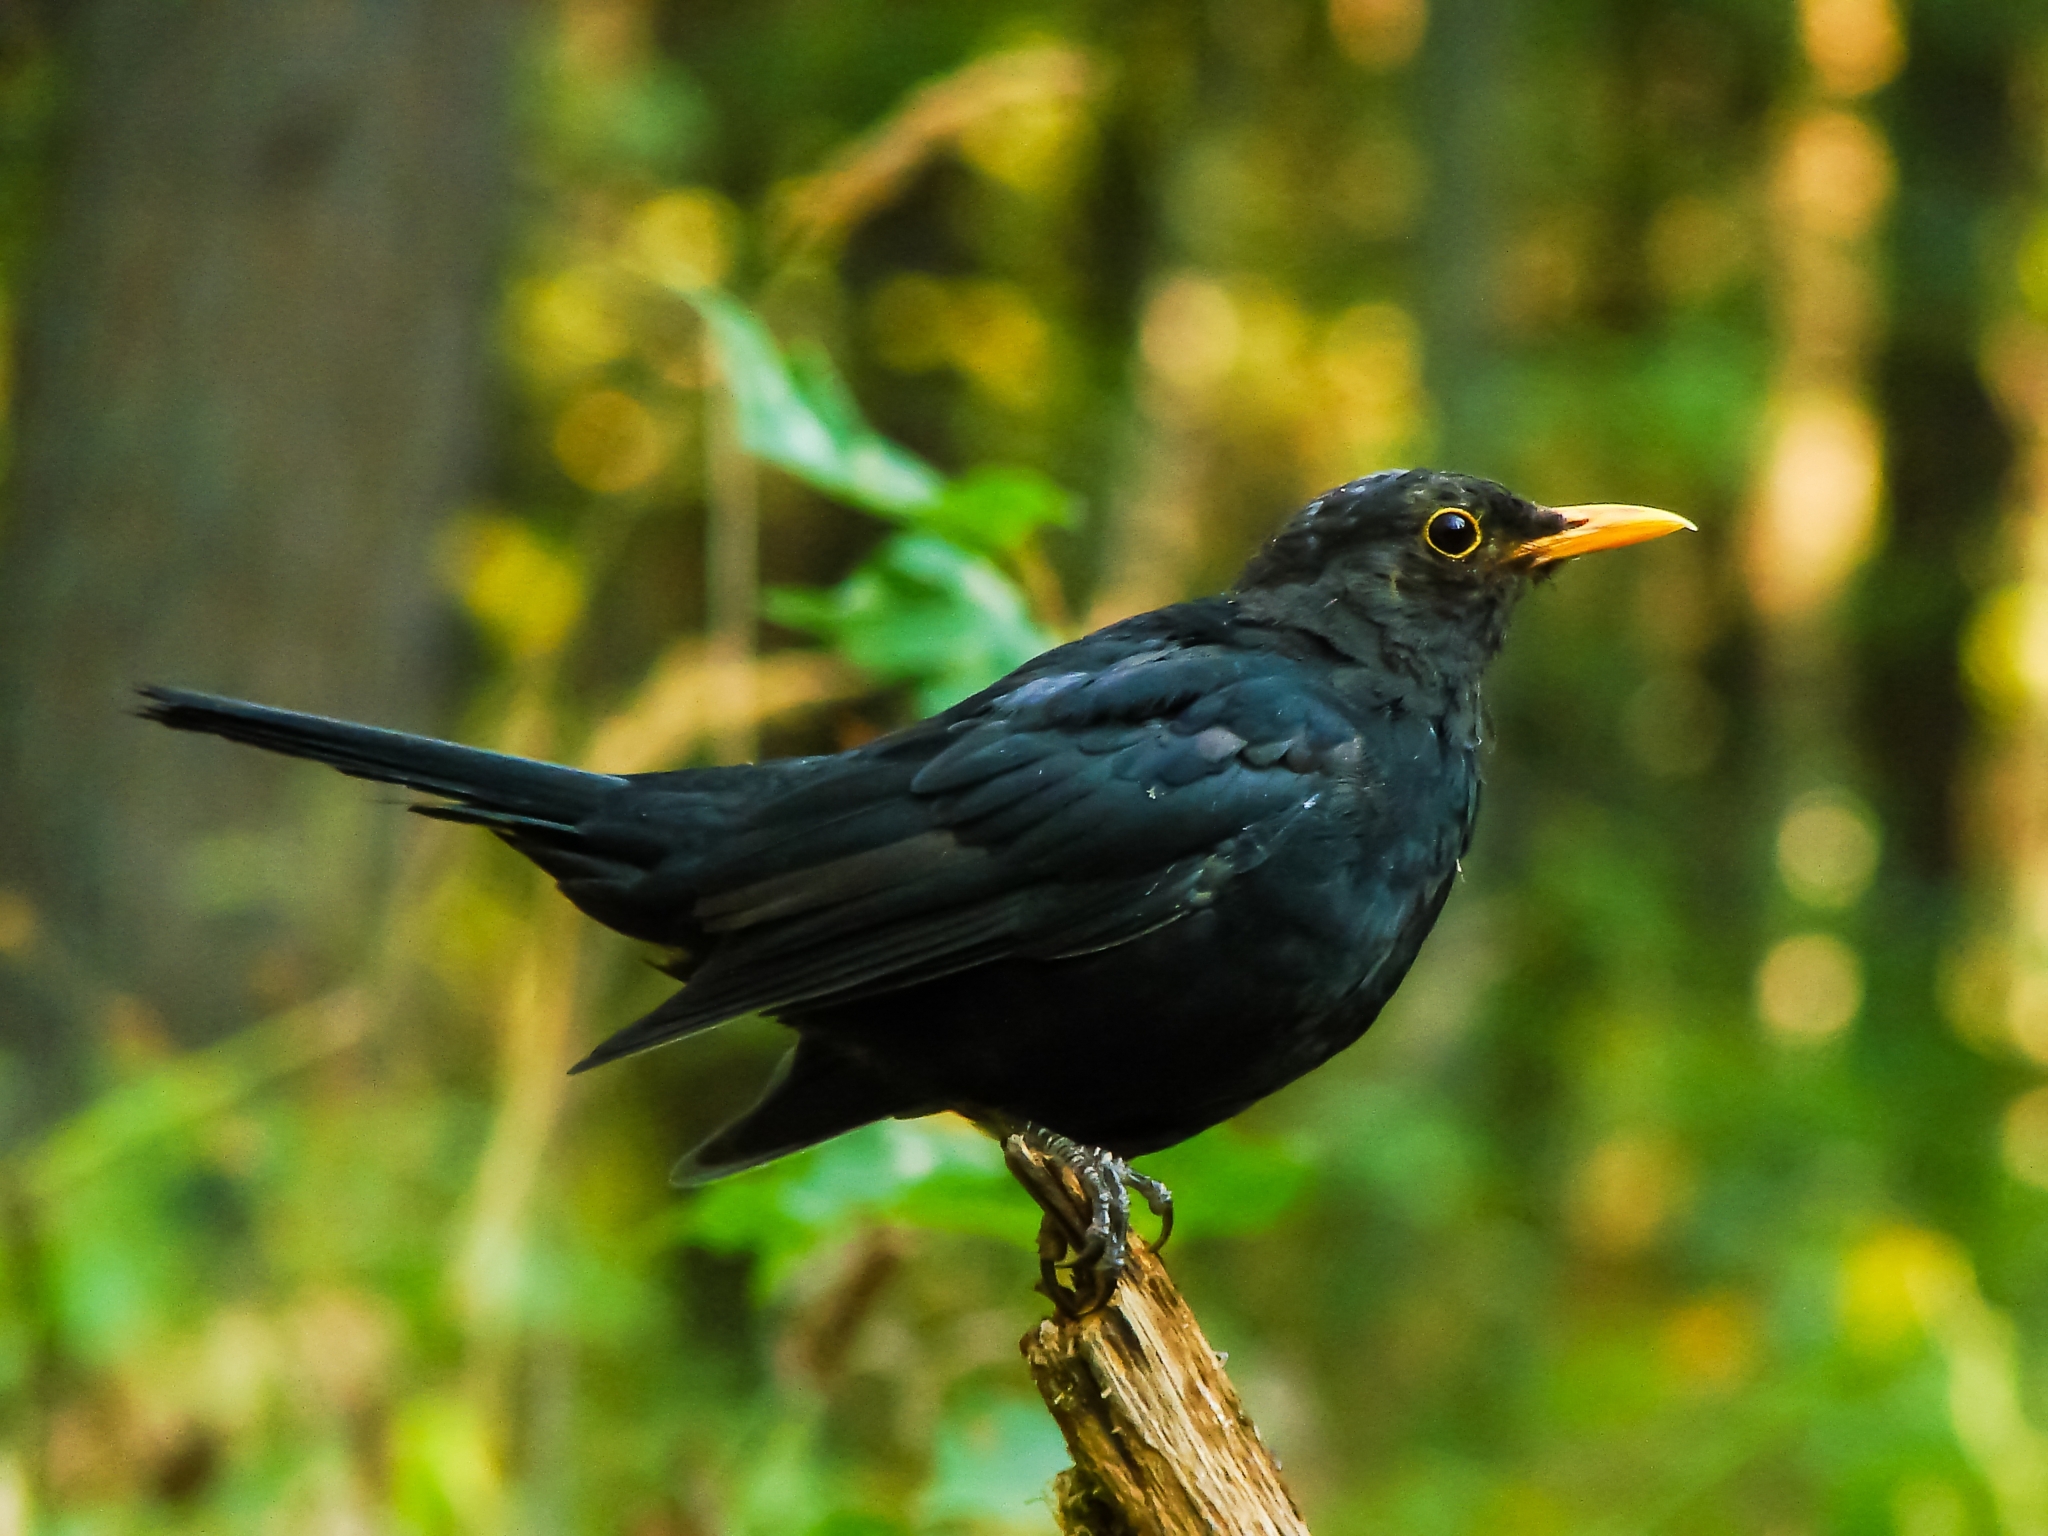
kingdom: Animalia
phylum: Chordata
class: Aves
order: Passeriformes
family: Turdidae
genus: Turdus
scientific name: Turdus merula
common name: Common blackbird
